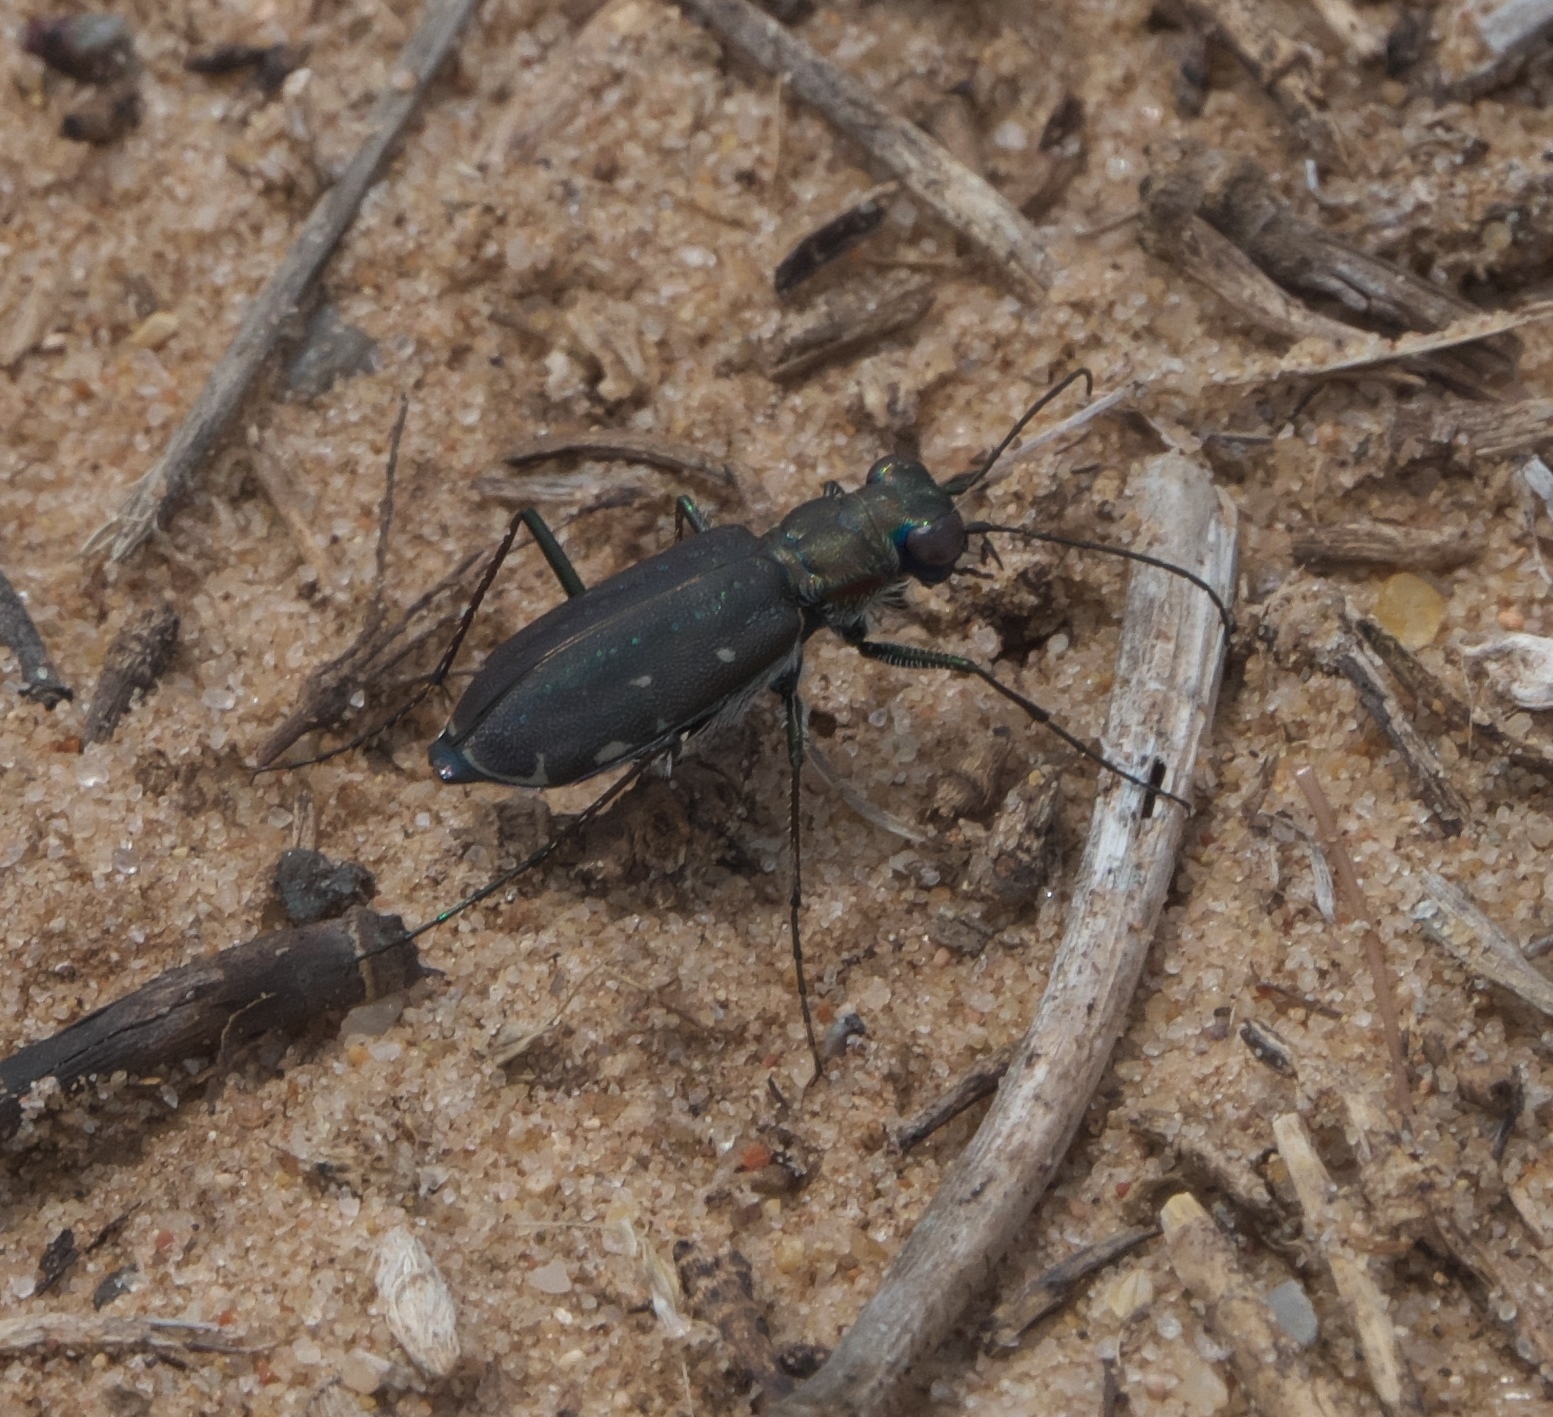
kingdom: Animalia
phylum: Arthropoda
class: Insecta
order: Coleoptera
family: Carabidae
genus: Cicindela
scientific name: Cicindela punctulata
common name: Punctured tiger beetle
